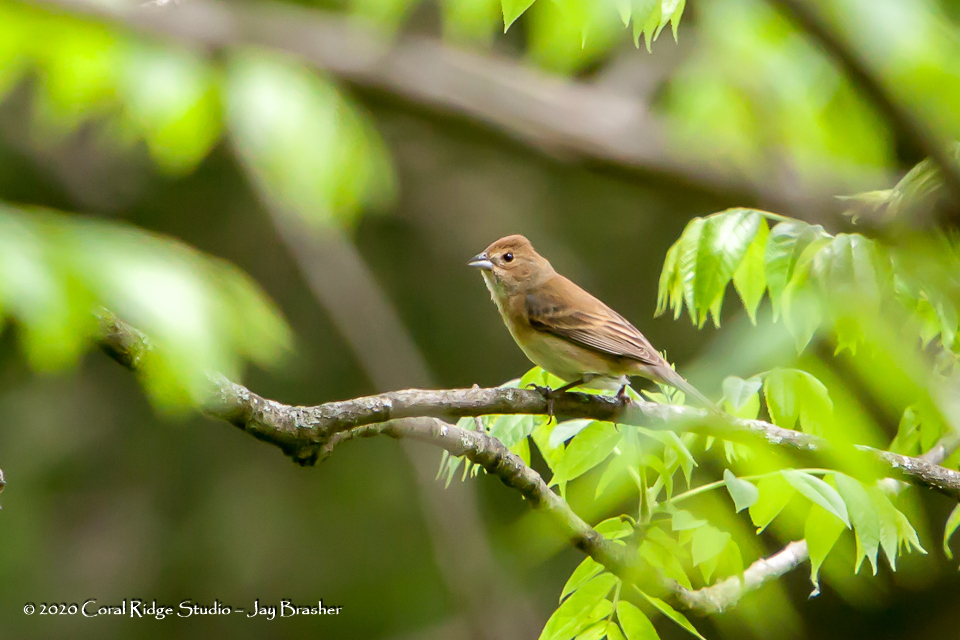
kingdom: Animalia
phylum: Chordata
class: Aves
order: Passeriformes
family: Cardinalidae
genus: Passerina
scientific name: Passerina cyanea
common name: Indigo bunting
